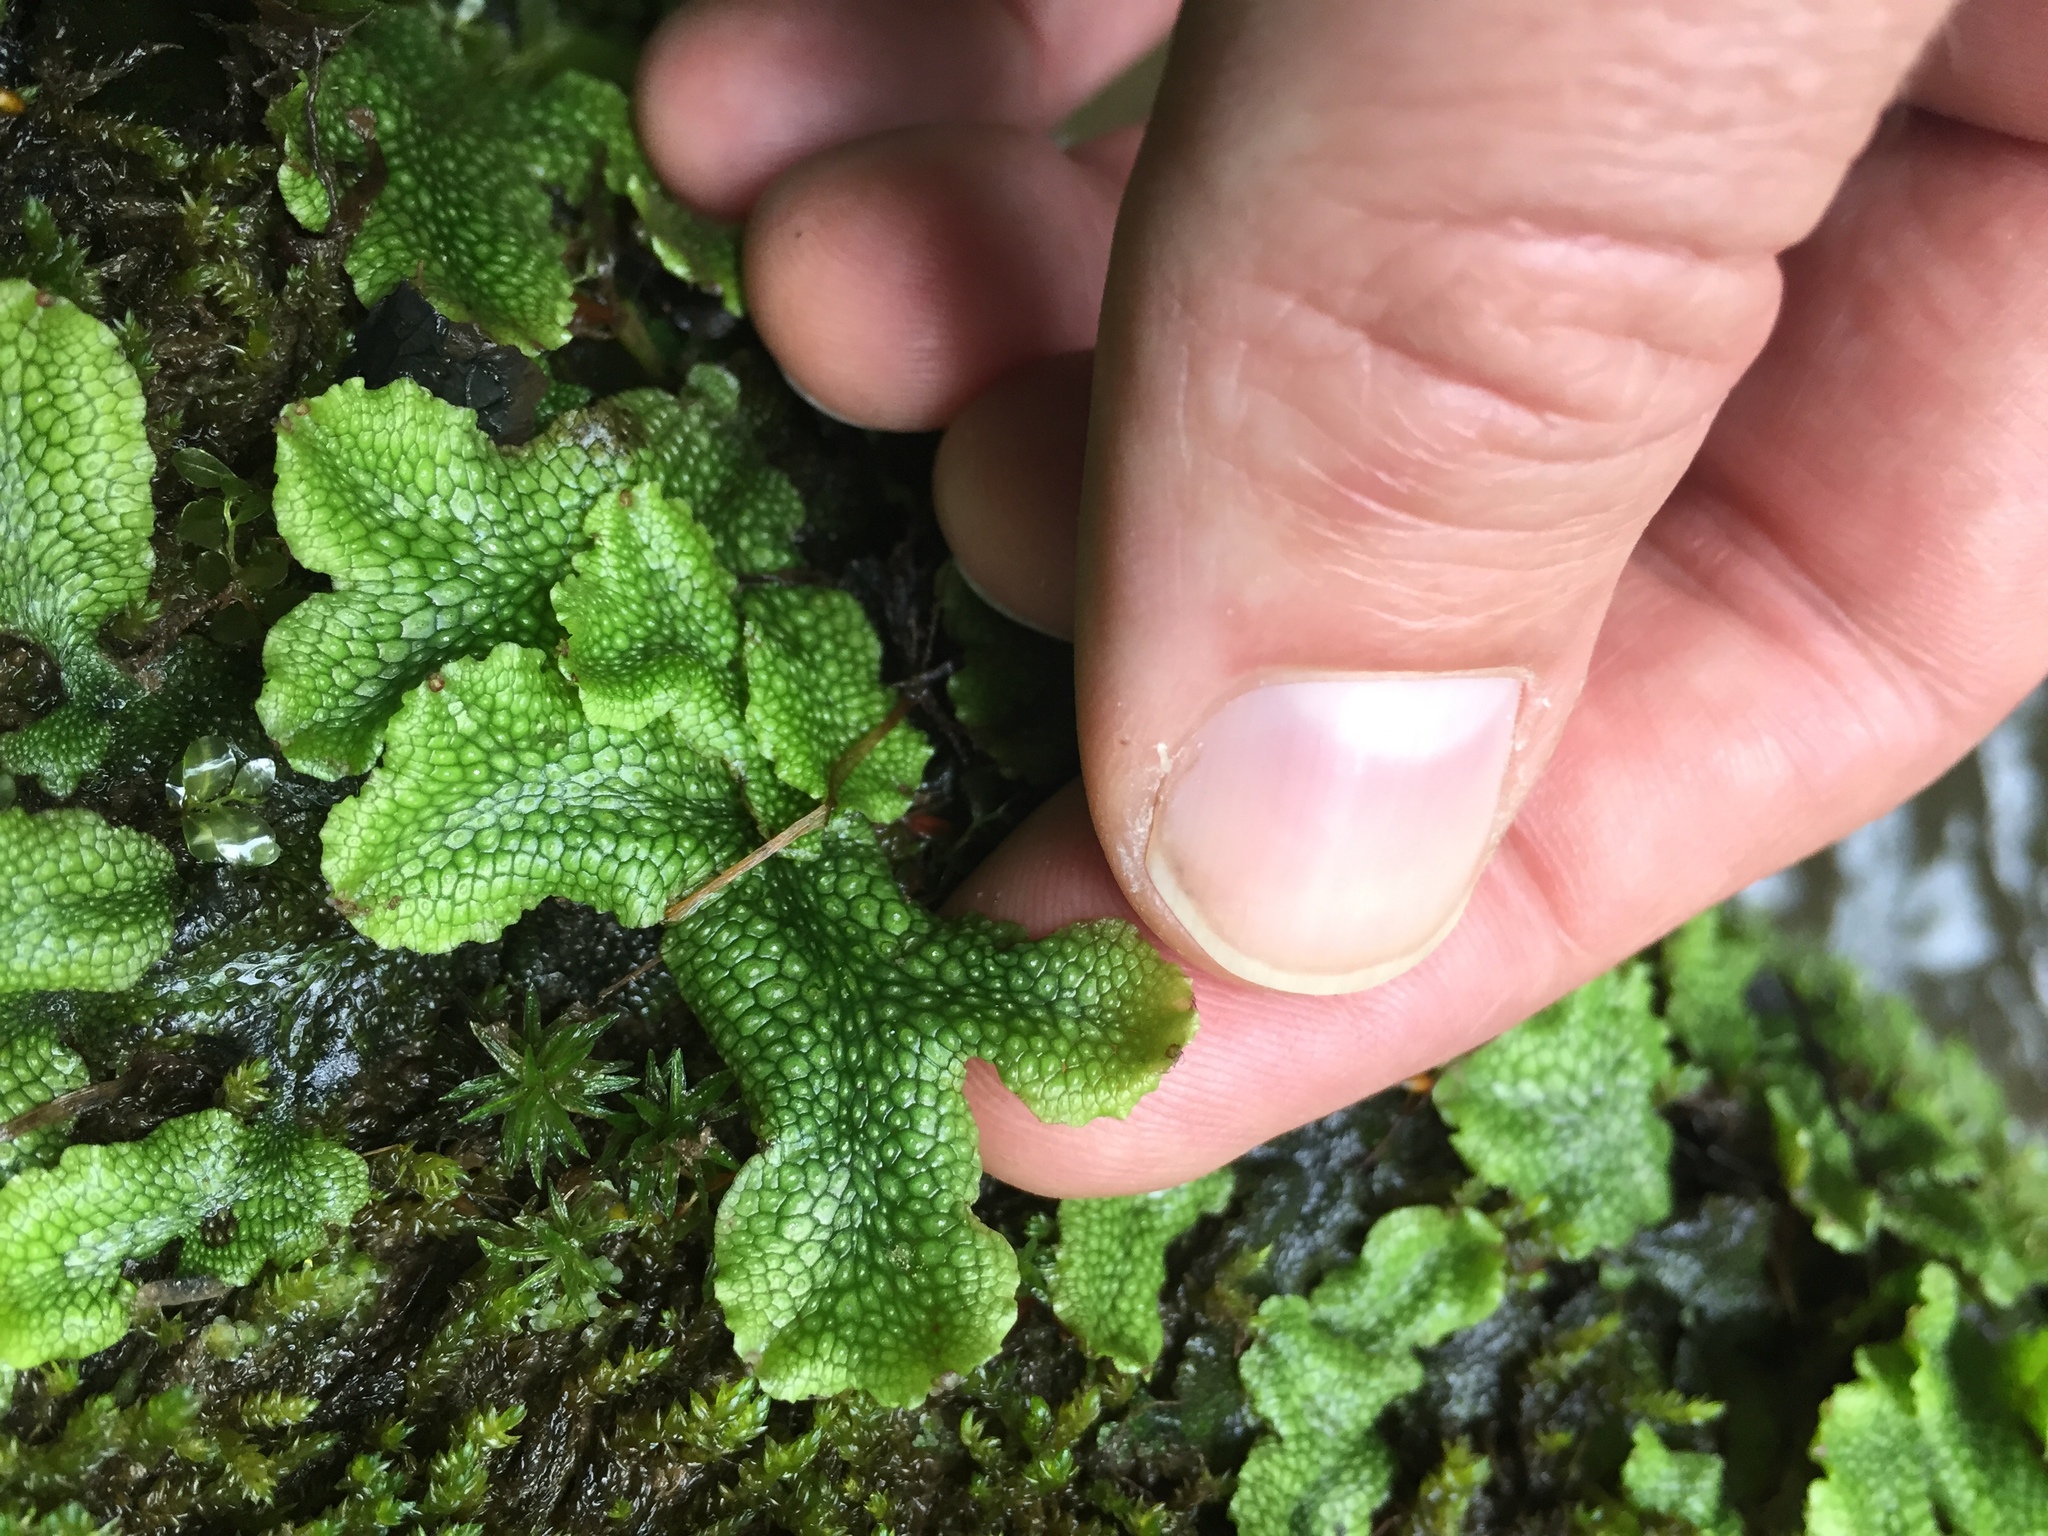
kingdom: Plantae
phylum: Marchantiophyta
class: Marchantiopsida
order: Marchantiales
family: Conocephalaceae
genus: Conocephalum
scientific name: Conocephalum salebrosum
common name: Cat-tongue liverwort
